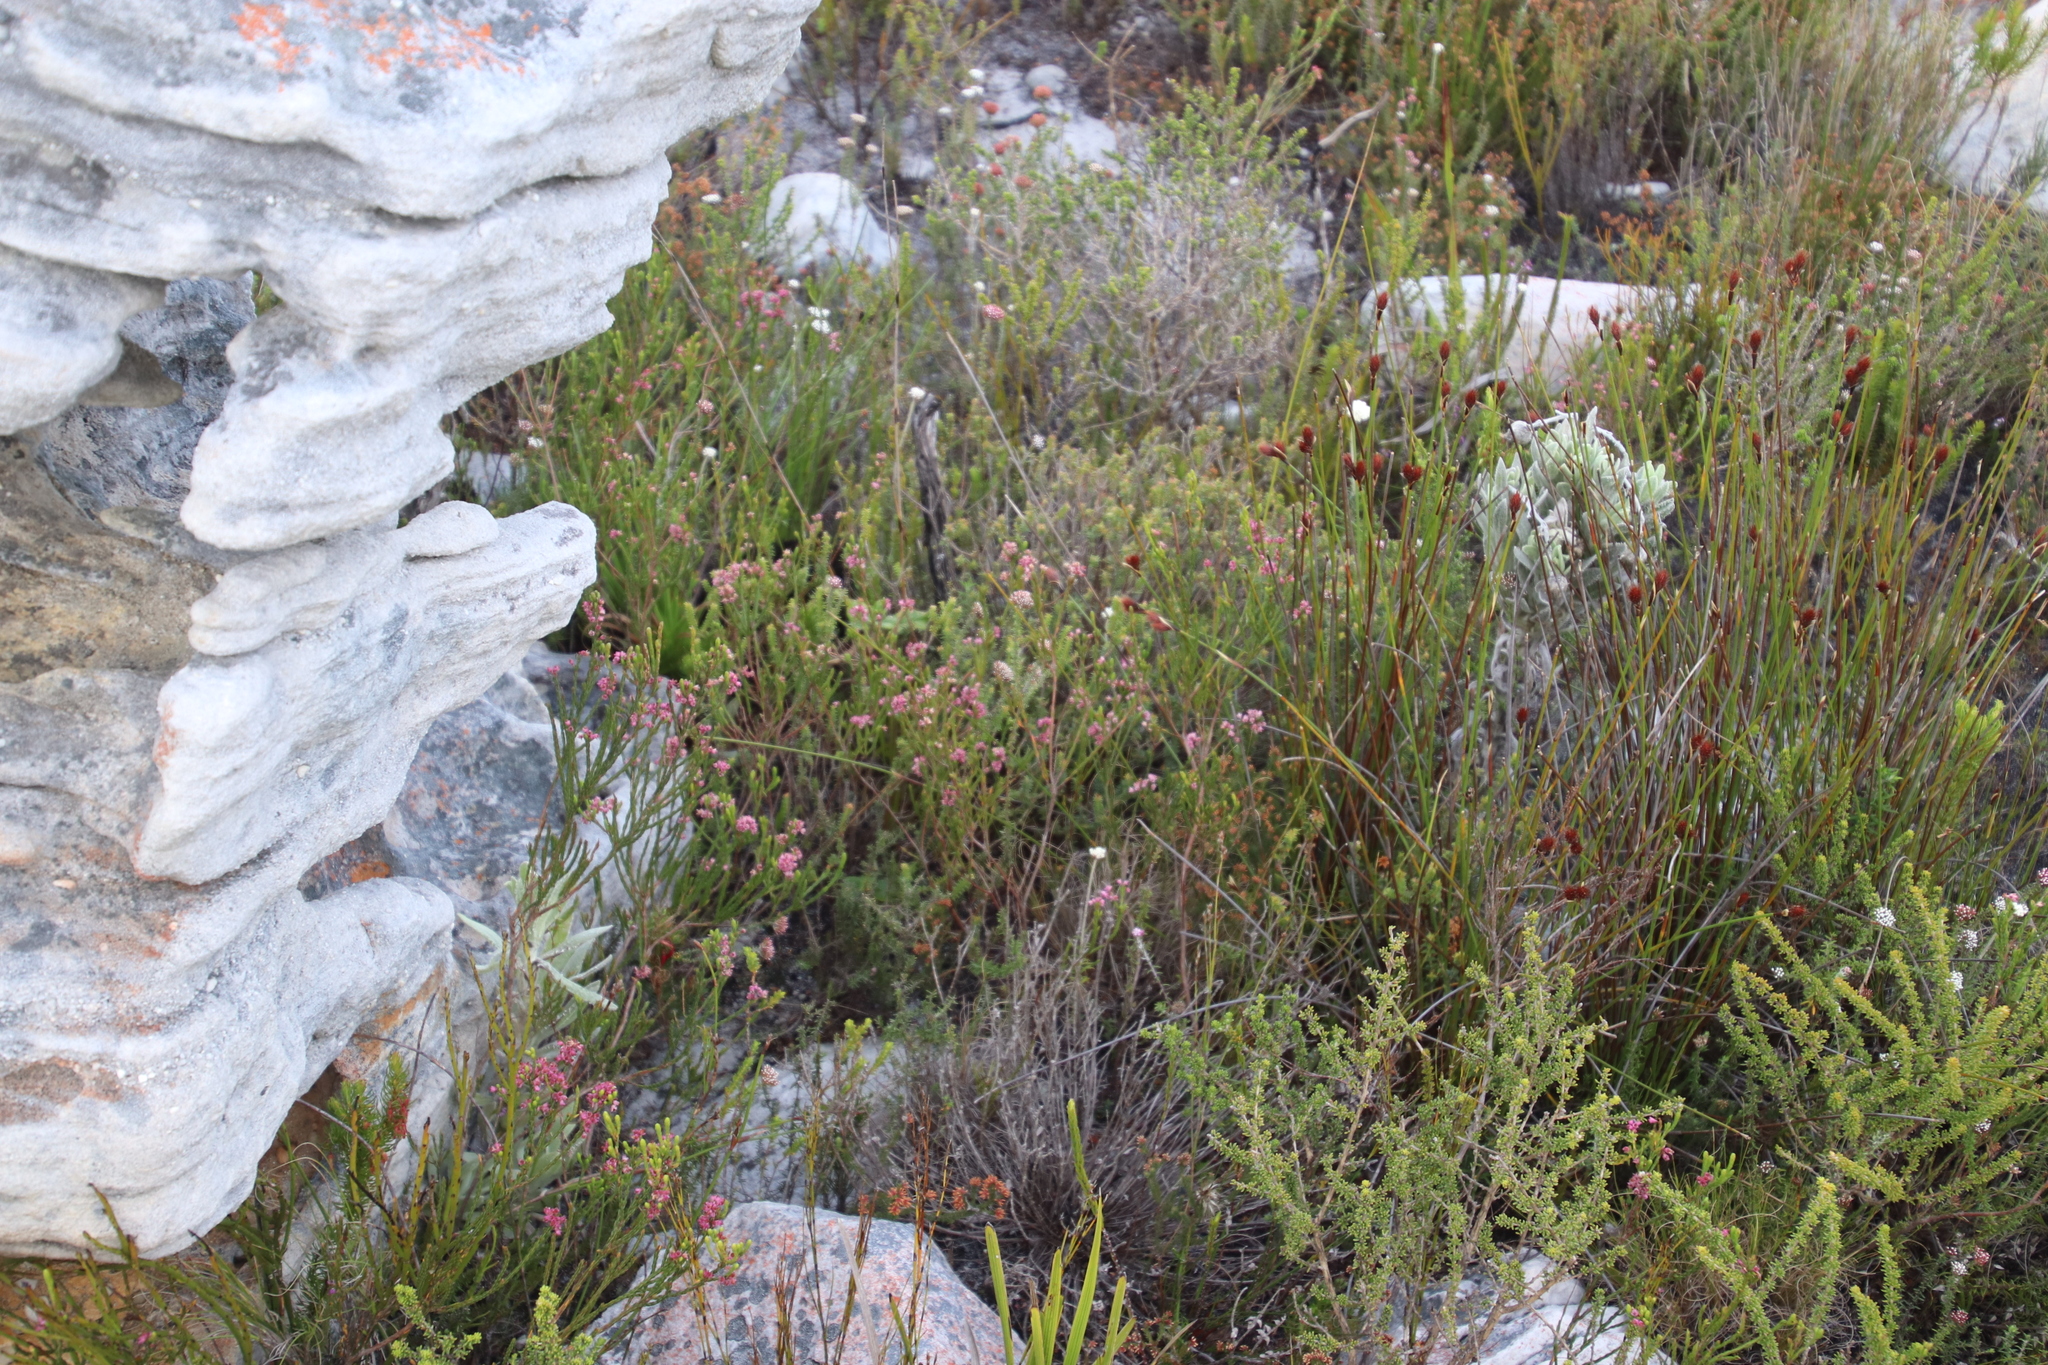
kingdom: Plantae
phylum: Tracheophyta
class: Magnoliopsida
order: Ericales
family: Ericaceae
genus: Erica
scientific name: Erica corifolia
